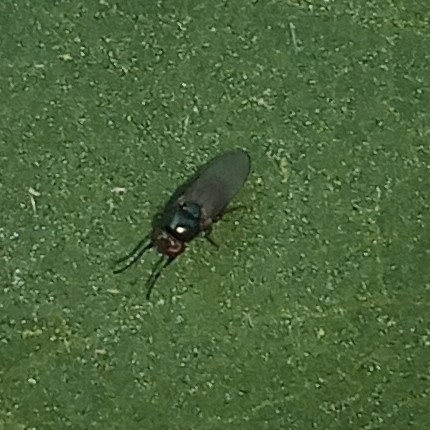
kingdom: Animalia
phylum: Arthropoda
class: Insecta
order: Diptera
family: Ulidiidae
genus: Physiphora
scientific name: Physiphora alceae
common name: Picture-winged fly
